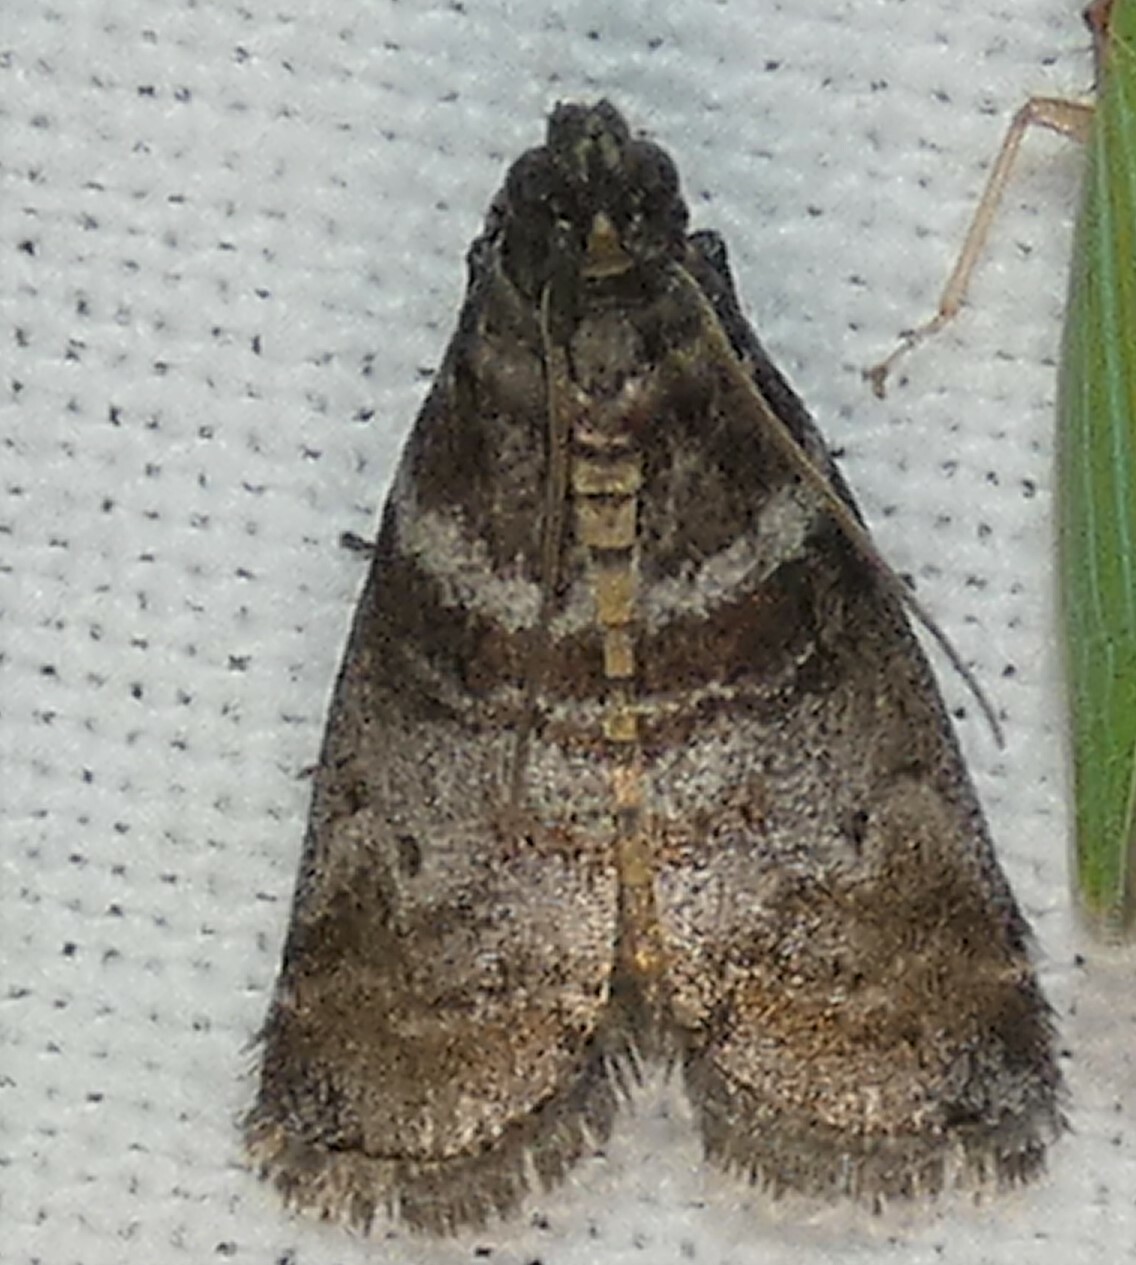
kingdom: Animalia
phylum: Arthropoda
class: Insecta
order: Lepidoptera
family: Pyralidae
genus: Sciota
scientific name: Sciota uvinella
